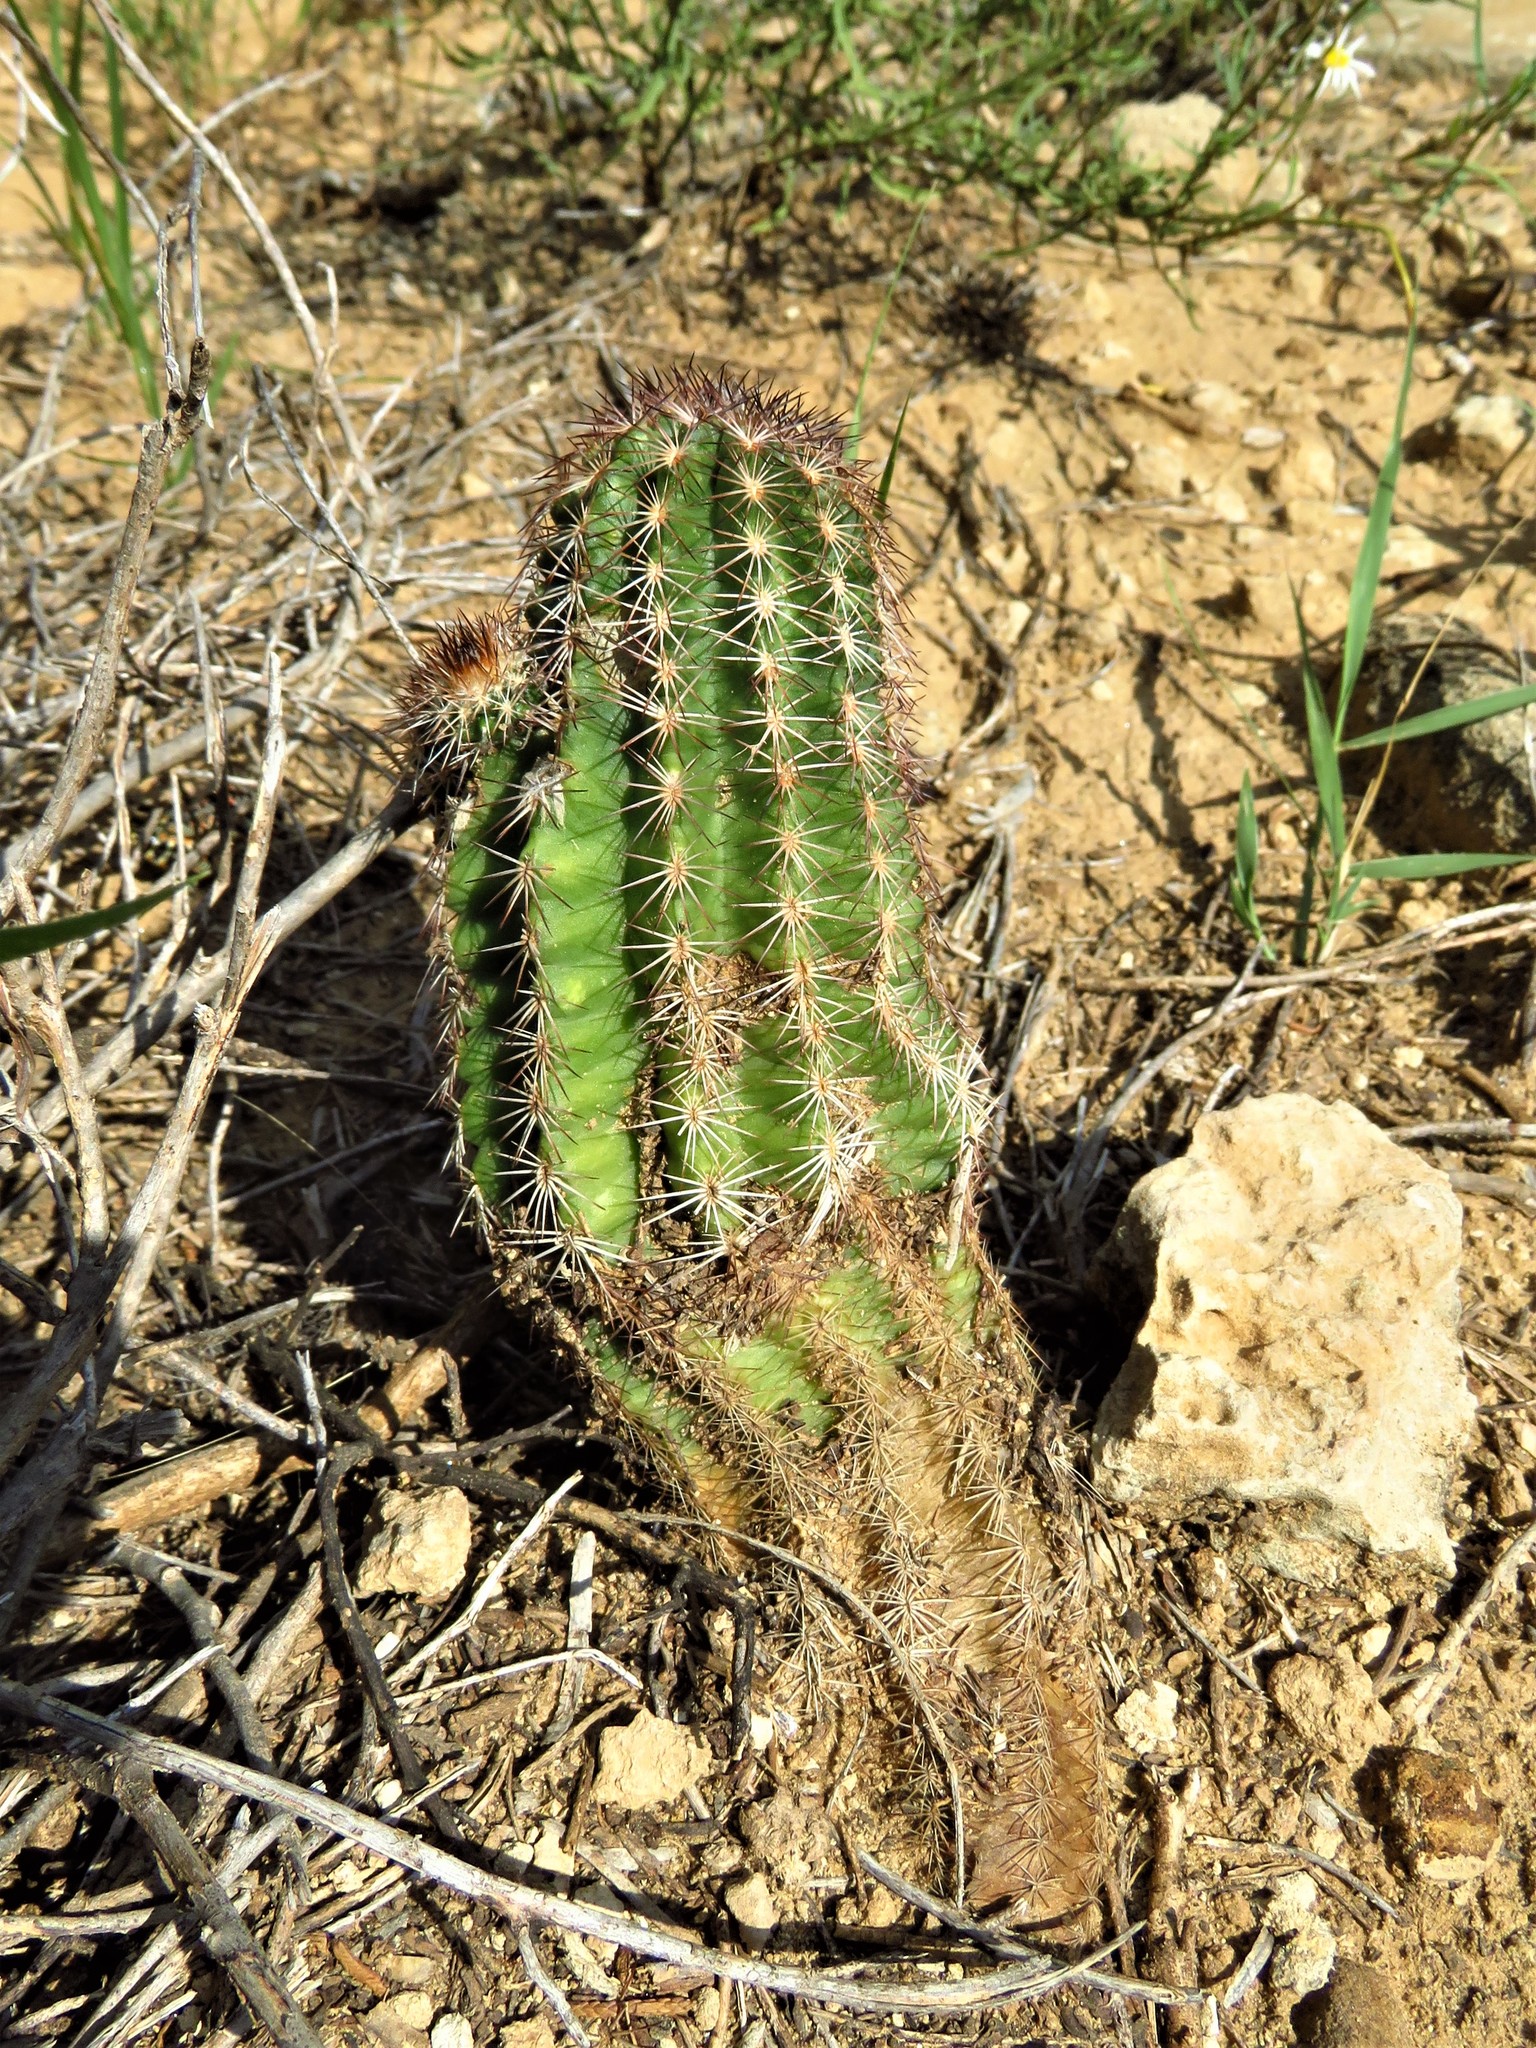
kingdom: Plantae
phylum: Tracheophyta
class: Magnoliopsida
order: Caryophyllales
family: Cactaceae
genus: Echinocereus
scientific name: Echinocereus reichenbachii
